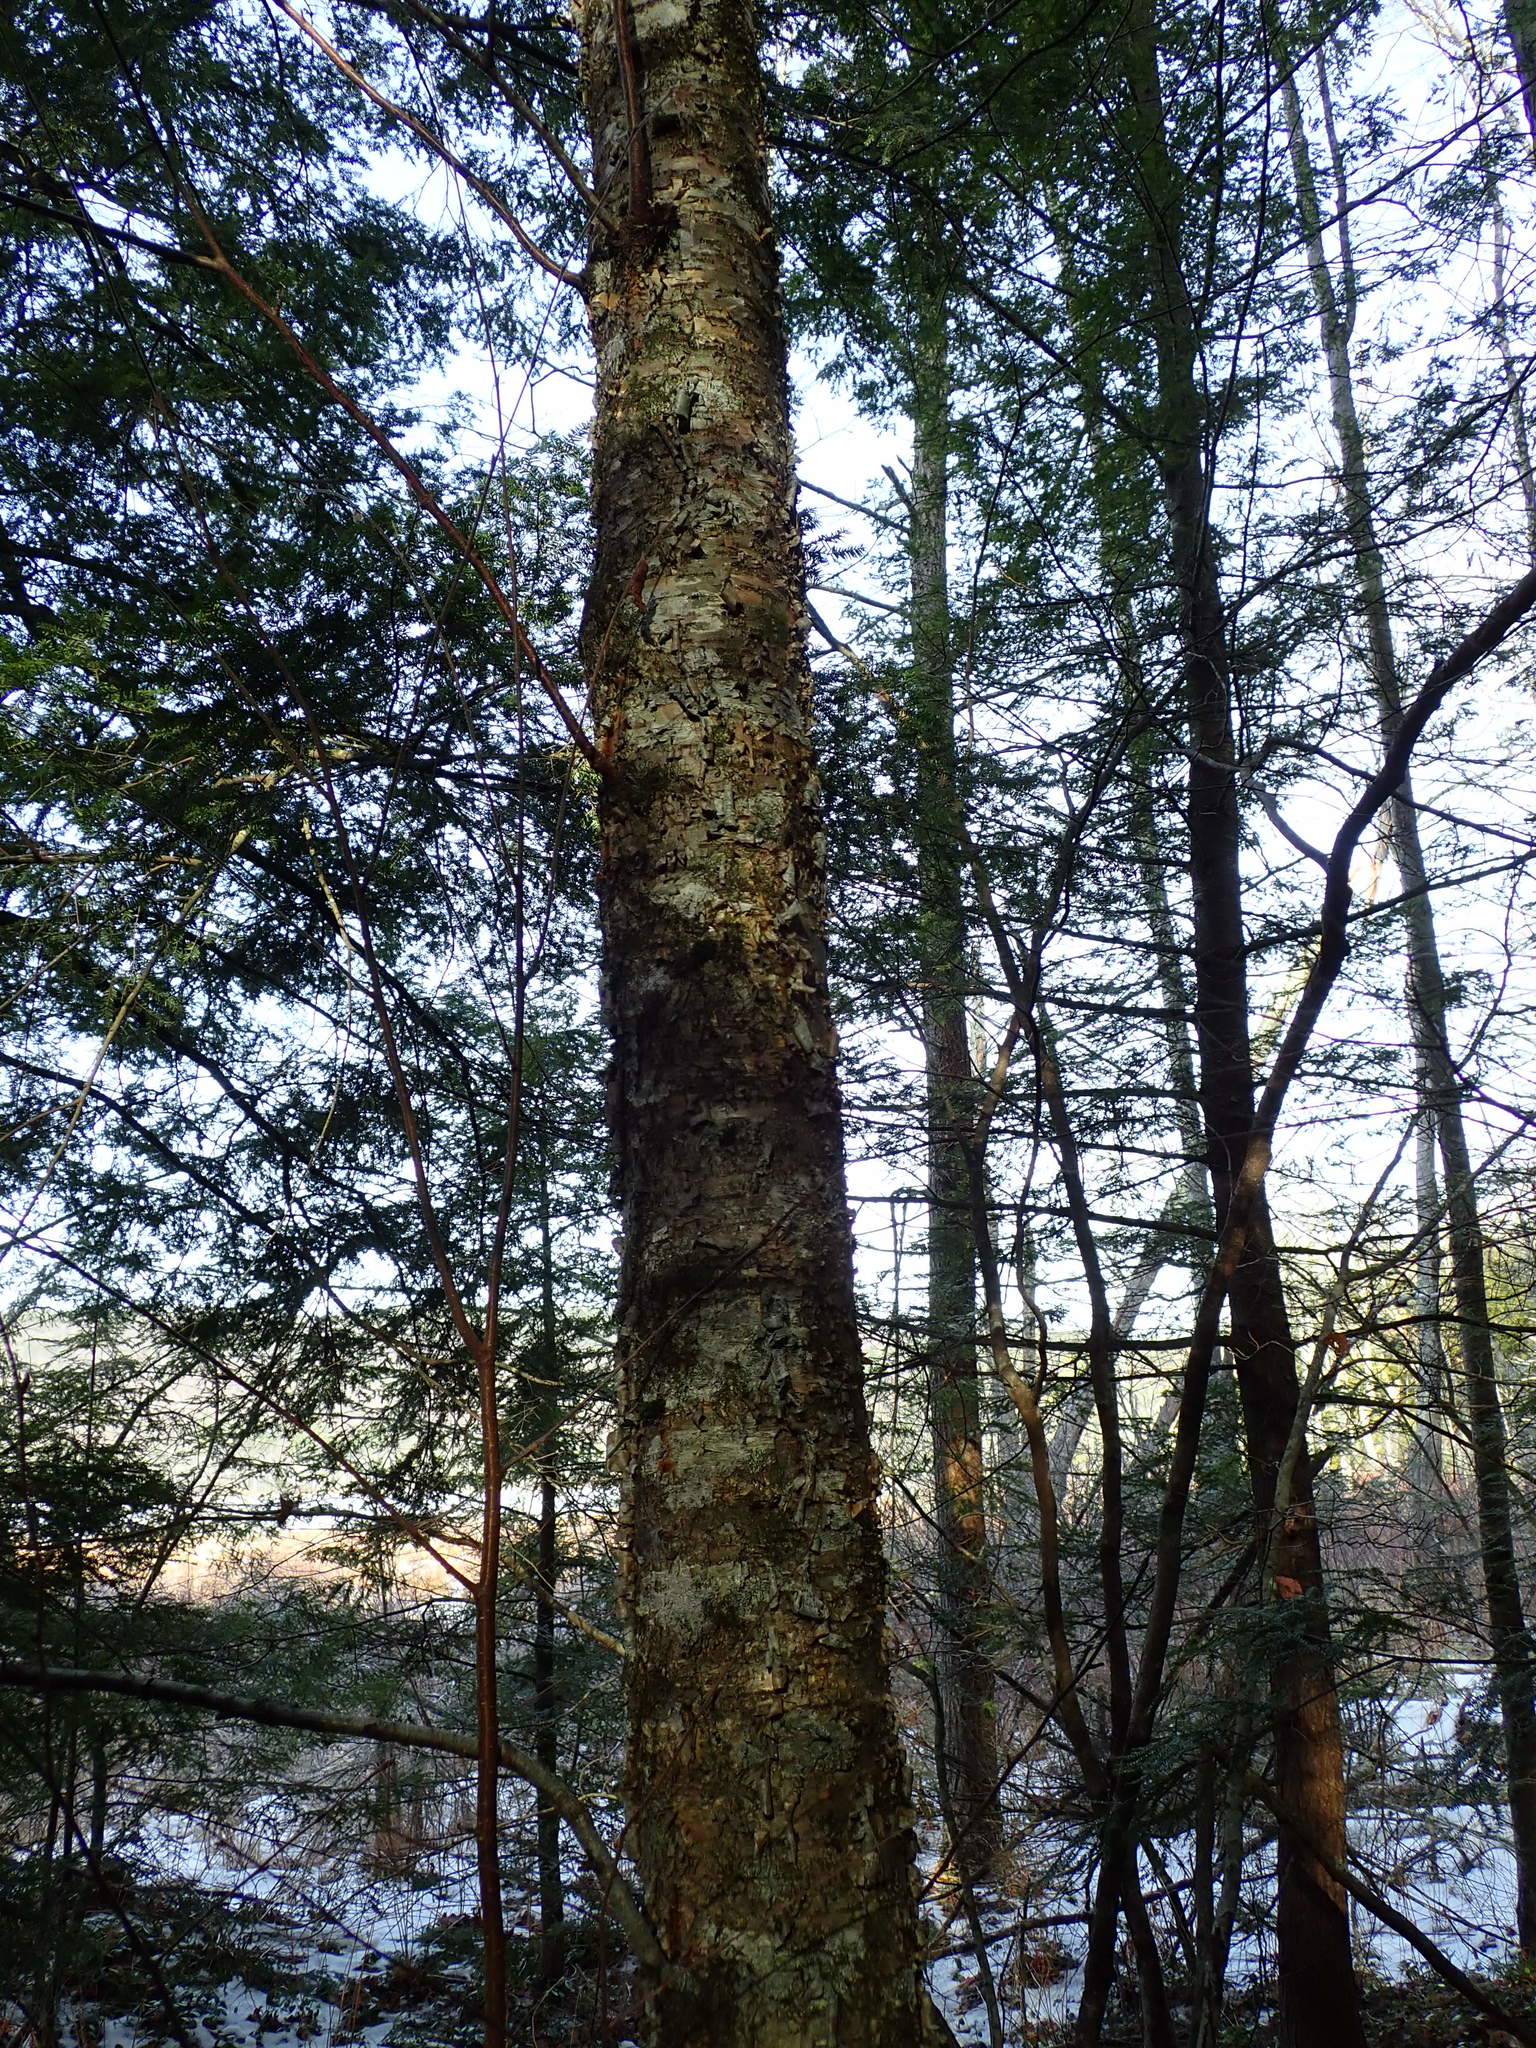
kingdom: Plantae
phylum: Tracheophyta
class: Magnoliopsida
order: Fagales
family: Betulaceae
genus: Betula
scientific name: Betula alleghaniensis
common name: Yellow birch
